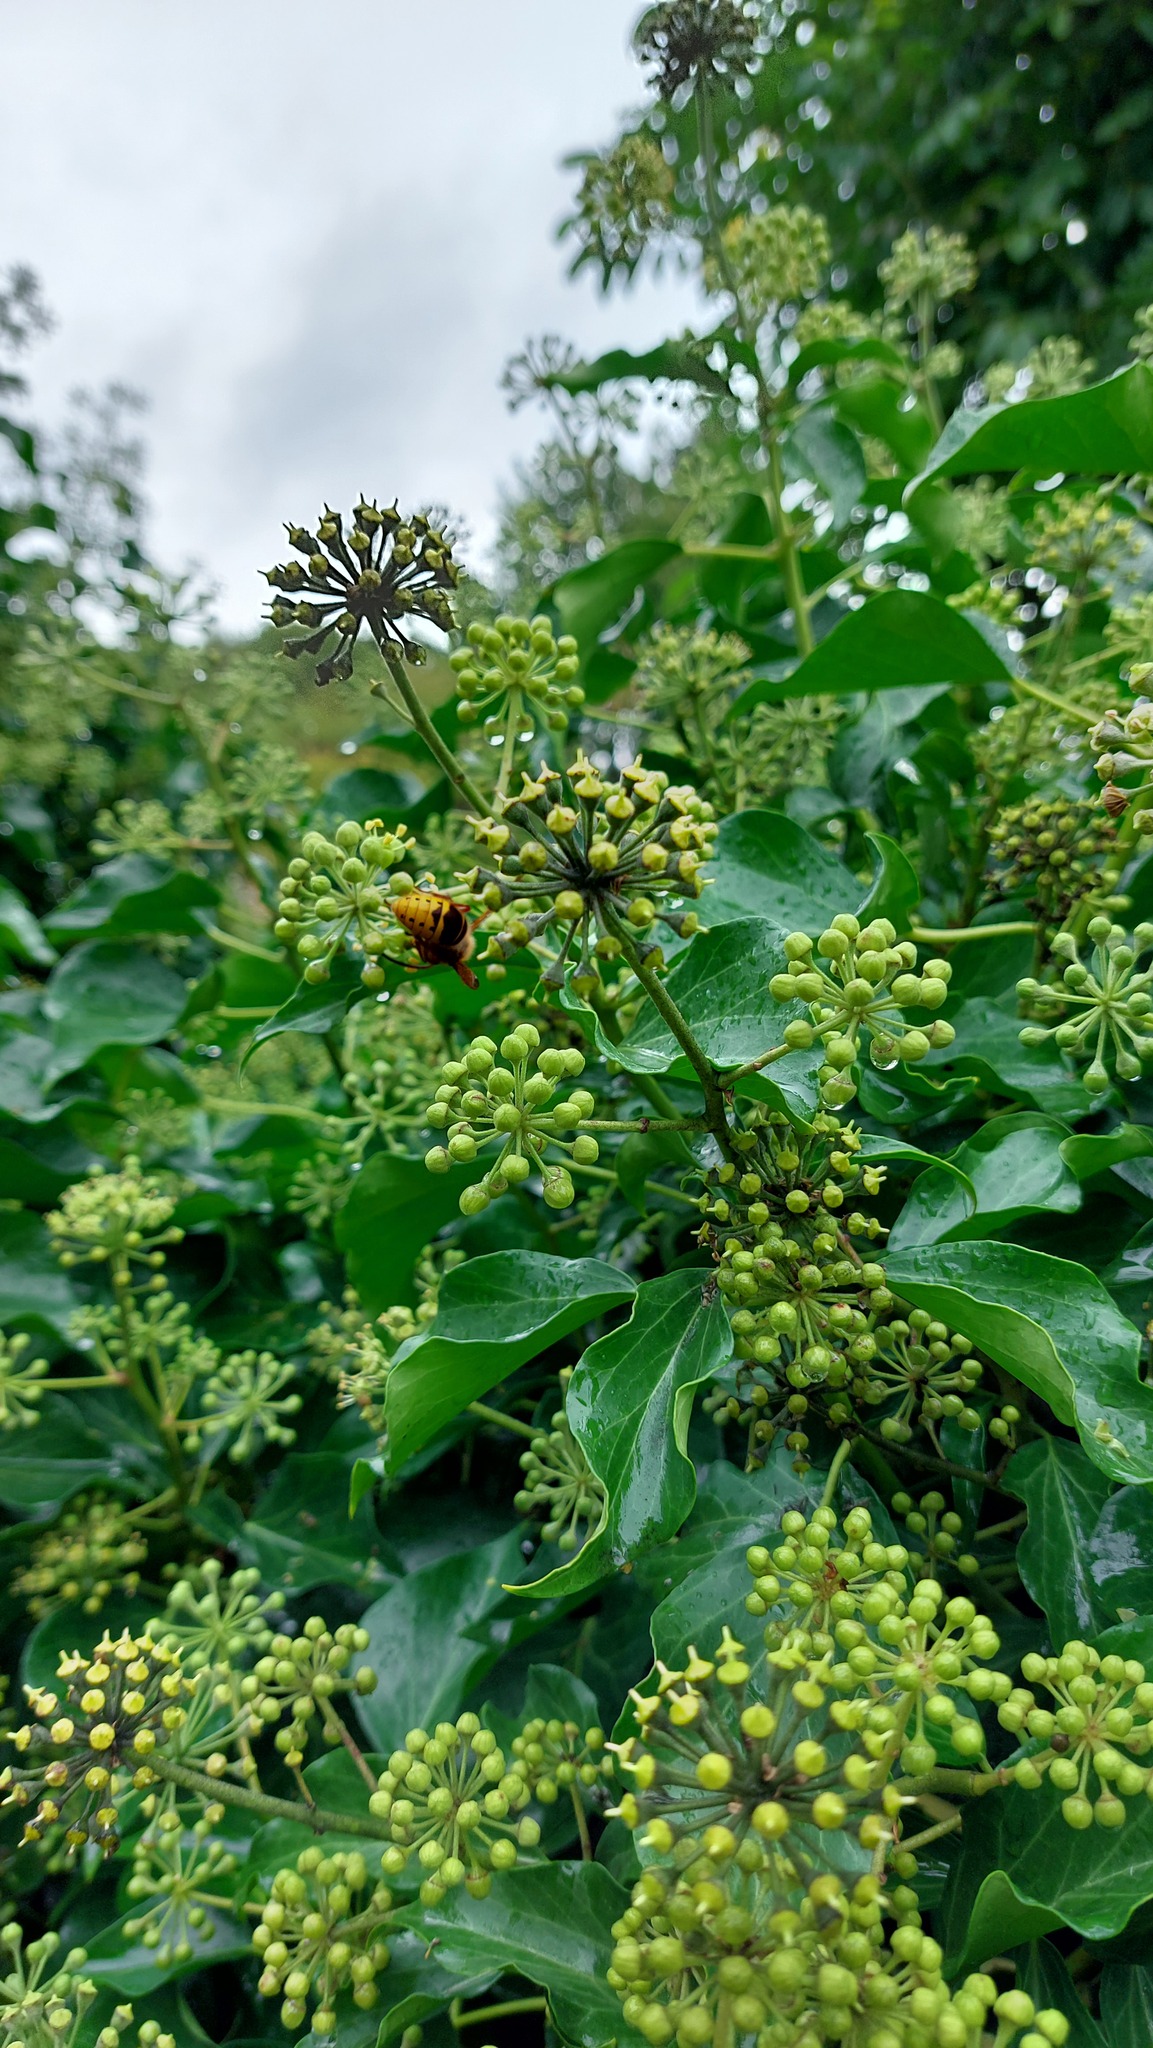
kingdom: Animalia
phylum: Arthropoda
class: Insecta
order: Hymenoptera
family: Vespidae
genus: Vespa
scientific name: Vespa velutina
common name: Asian hornet
